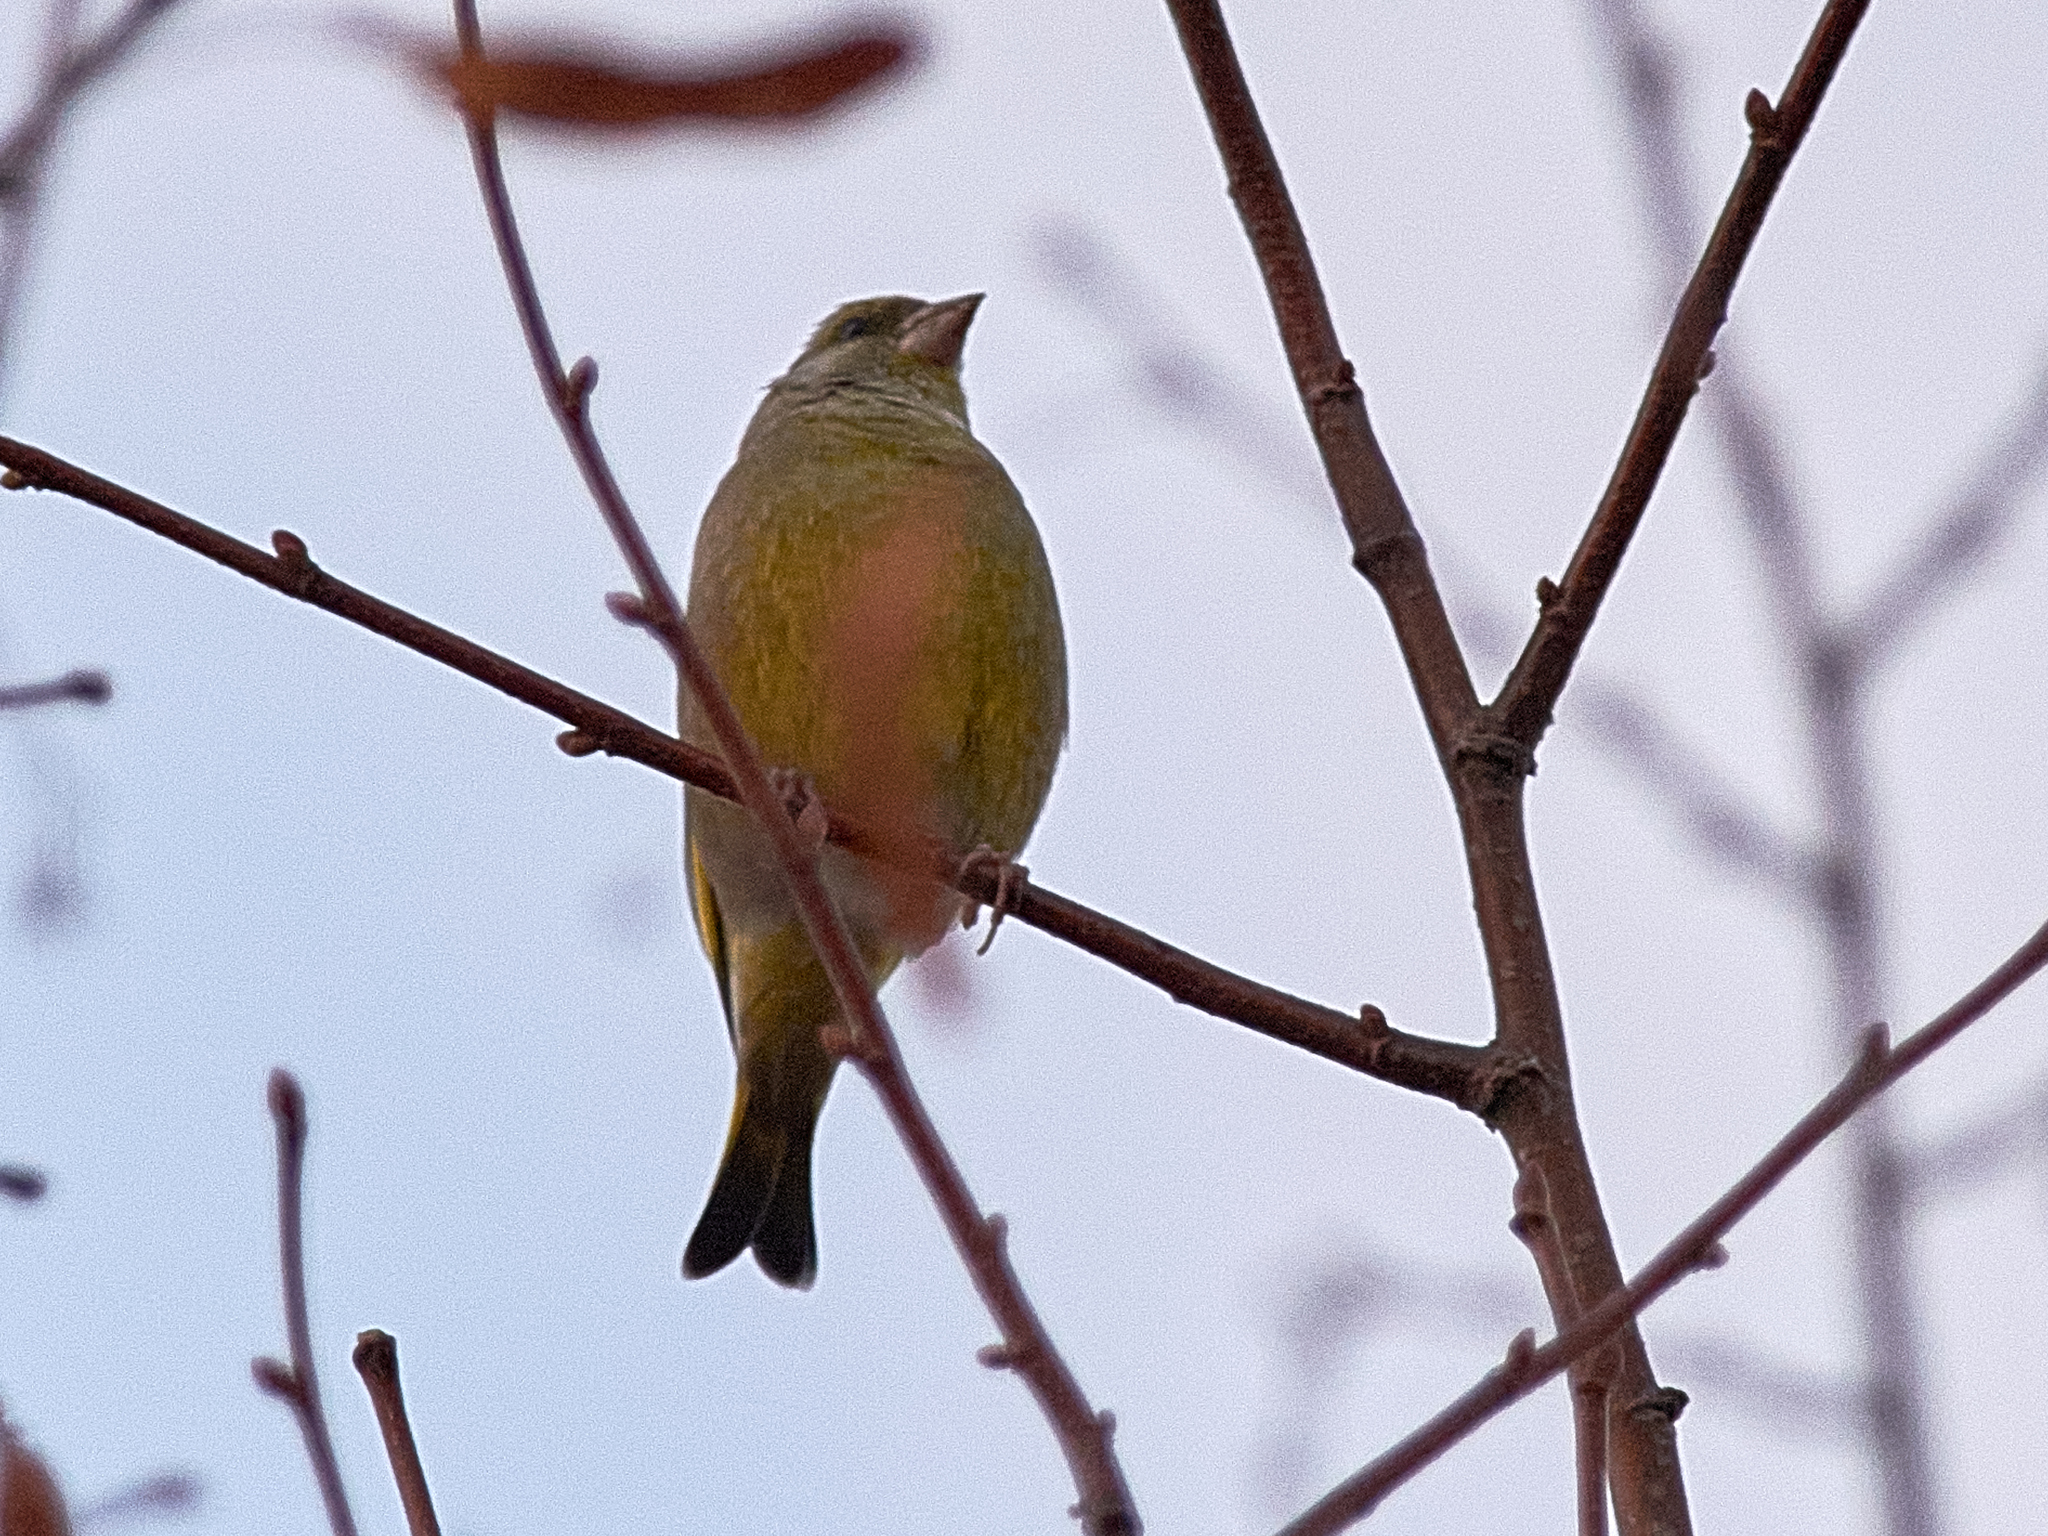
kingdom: Plantae
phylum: Tracheophyta
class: Liliopsida
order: Poales
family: Poaceae
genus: Chloris
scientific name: Chloris chloris
